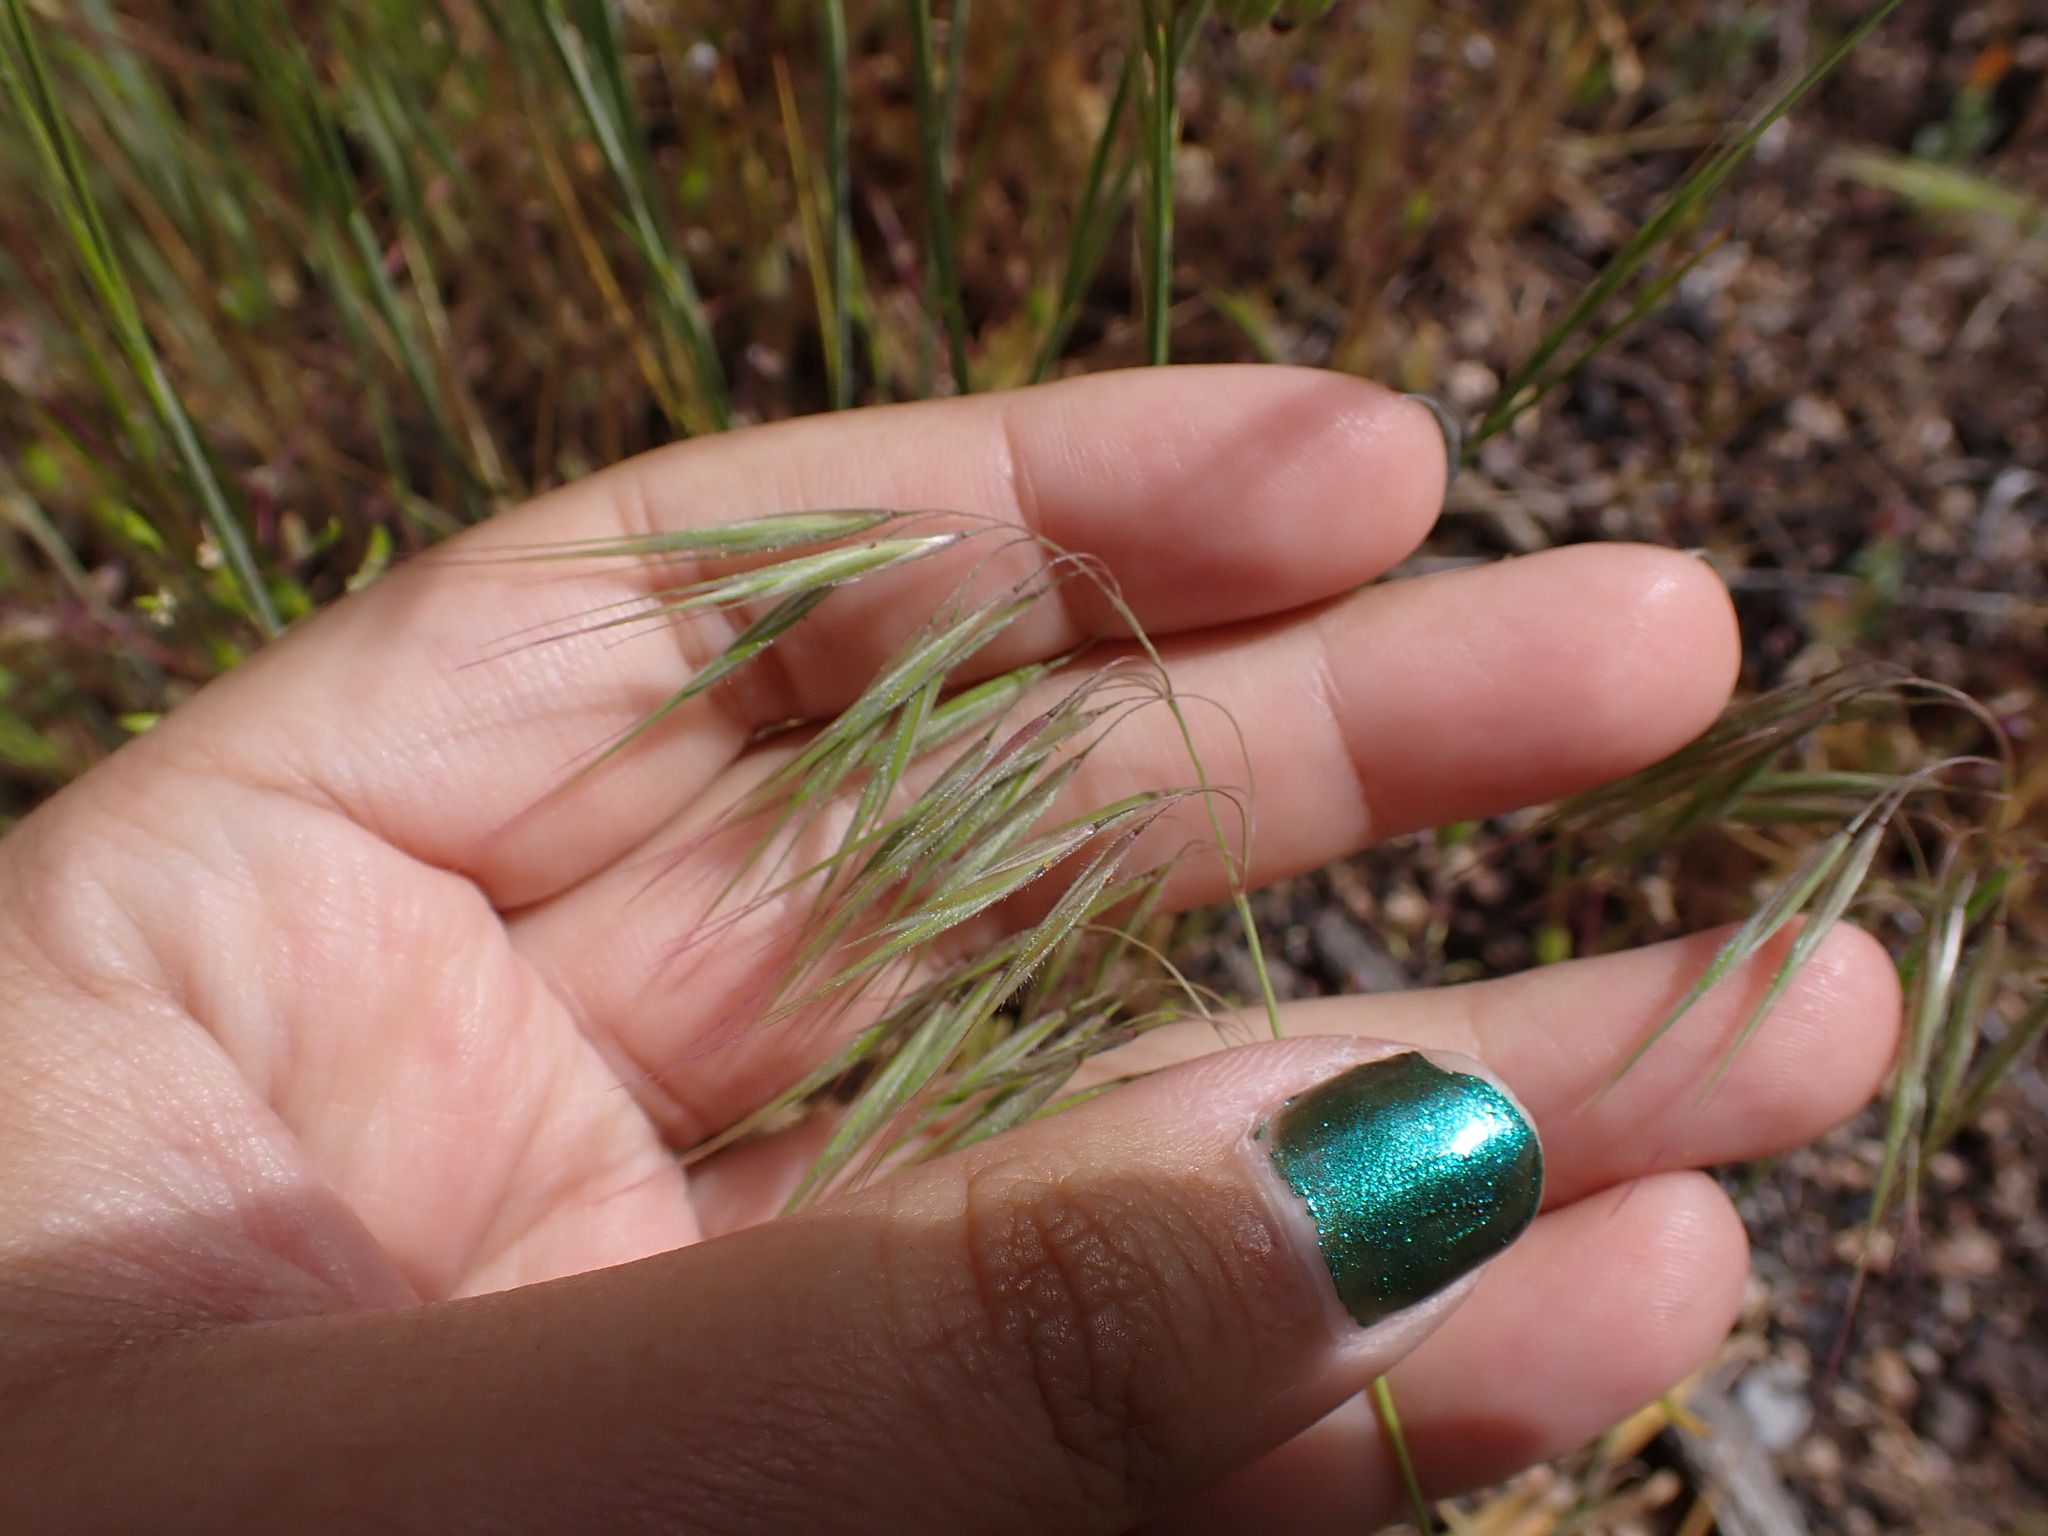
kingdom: Plantae
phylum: Tracheophyta
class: Liliopsida
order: Poales
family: Poaceae
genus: Bromus
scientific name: Bromus tectorum
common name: Cheatgrass
